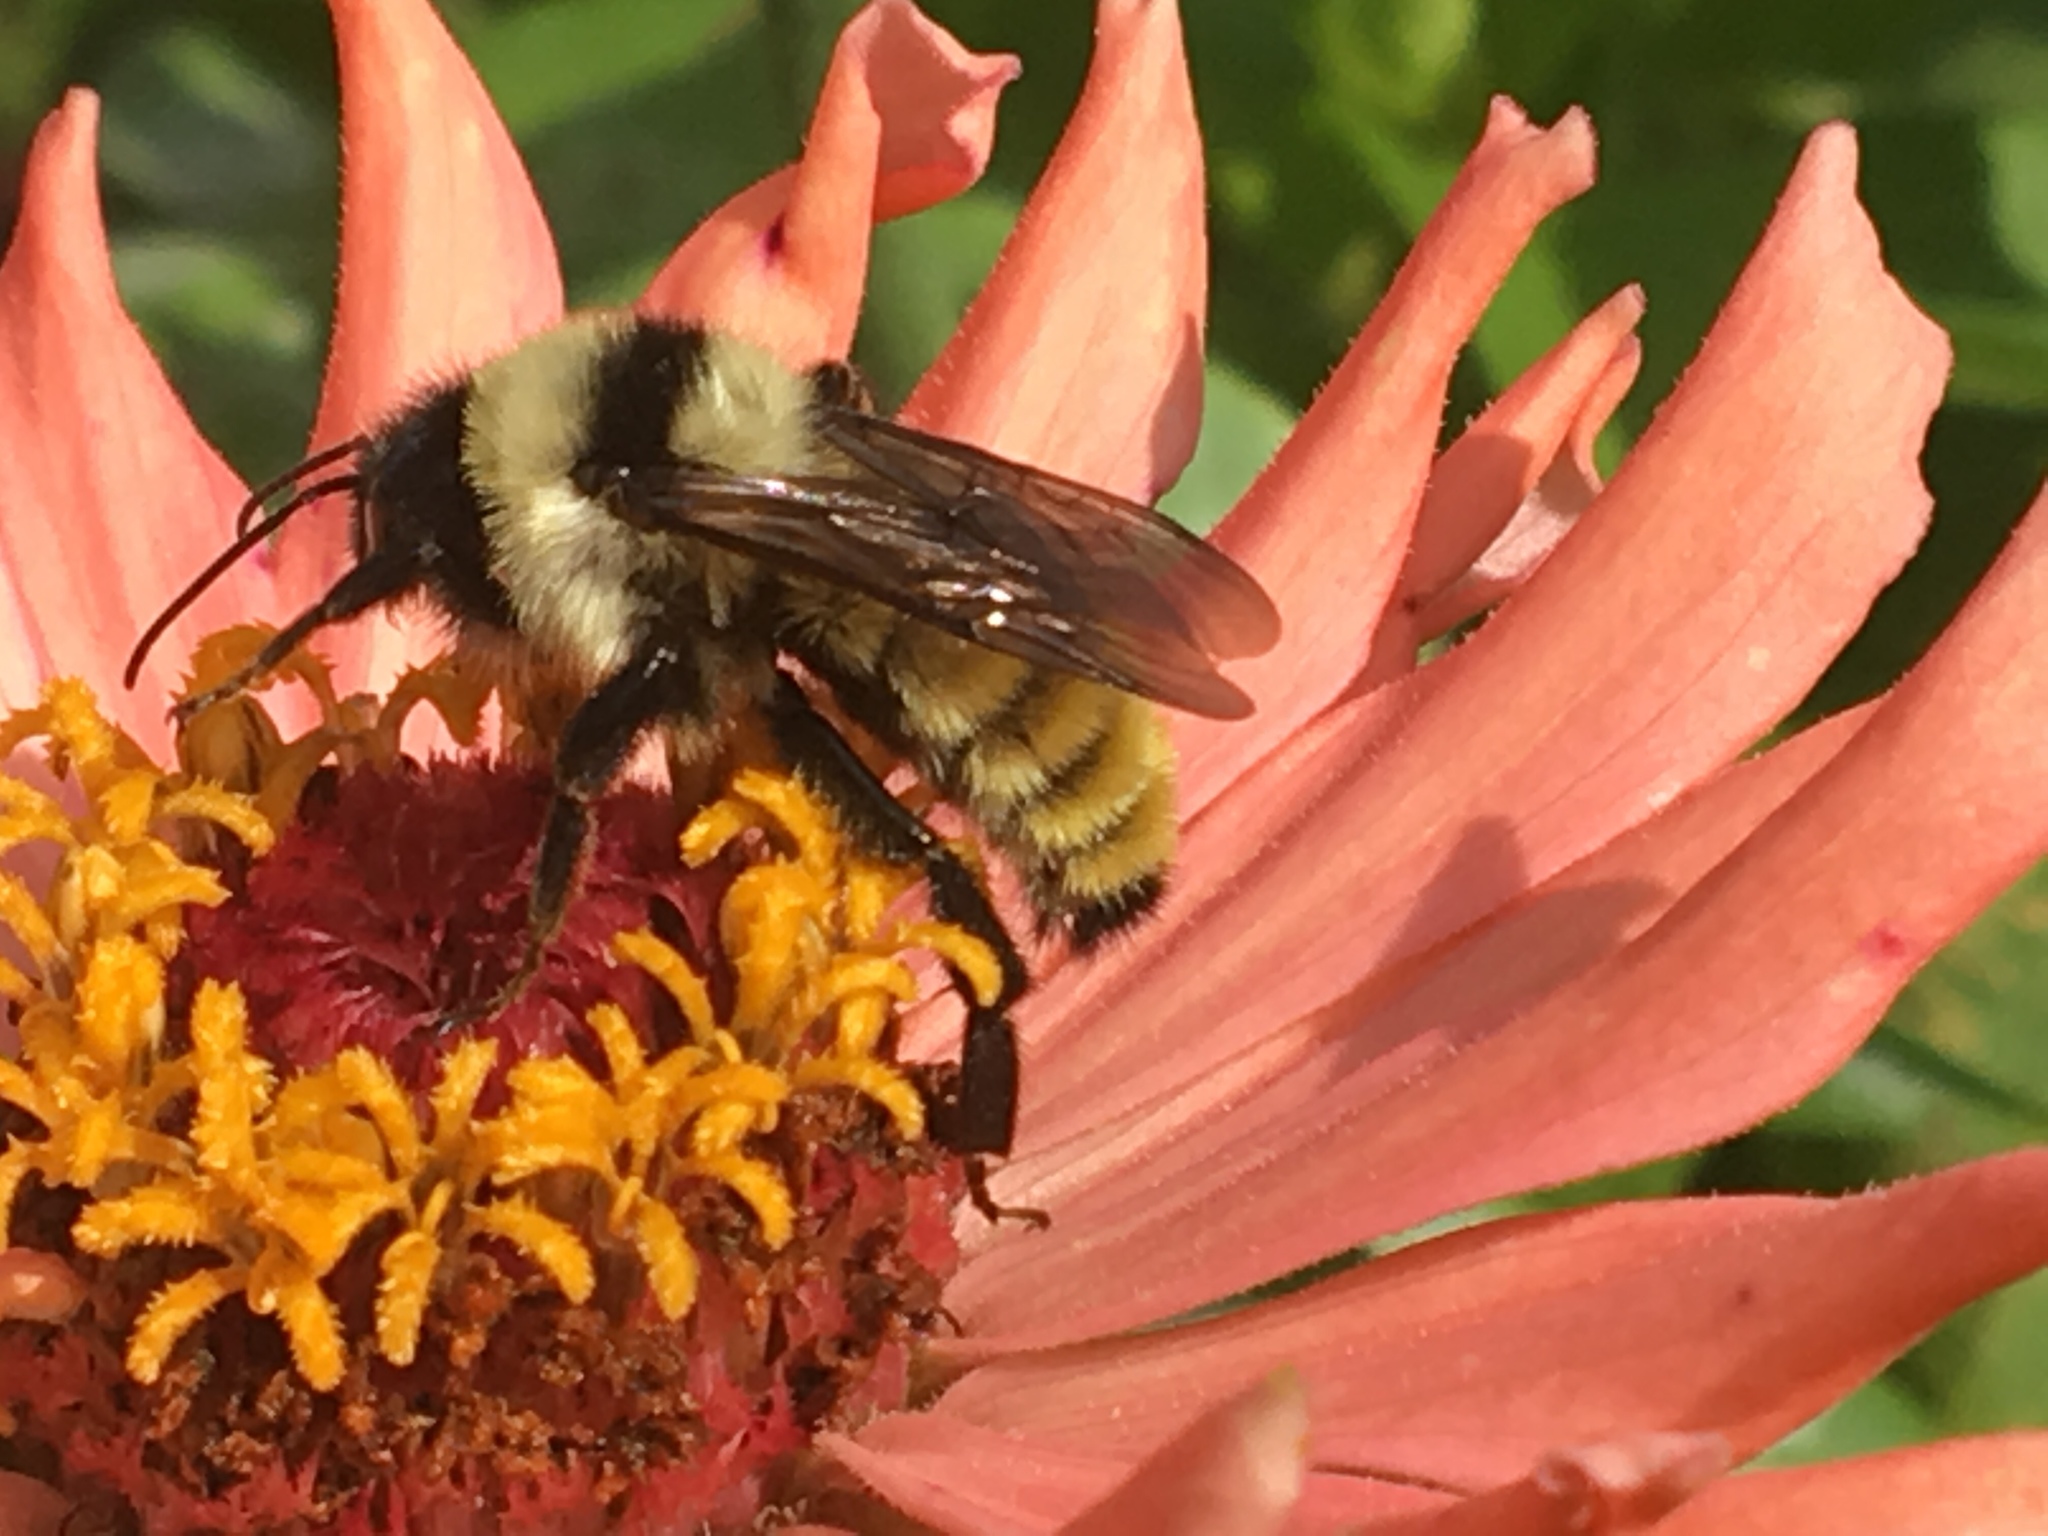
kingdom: Animalia
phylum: Arthropoda
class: Insecta
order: Hymenoptera
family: Apidae
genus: Bombus
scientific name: Bombus fervidus
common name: Yellow bumble bee
